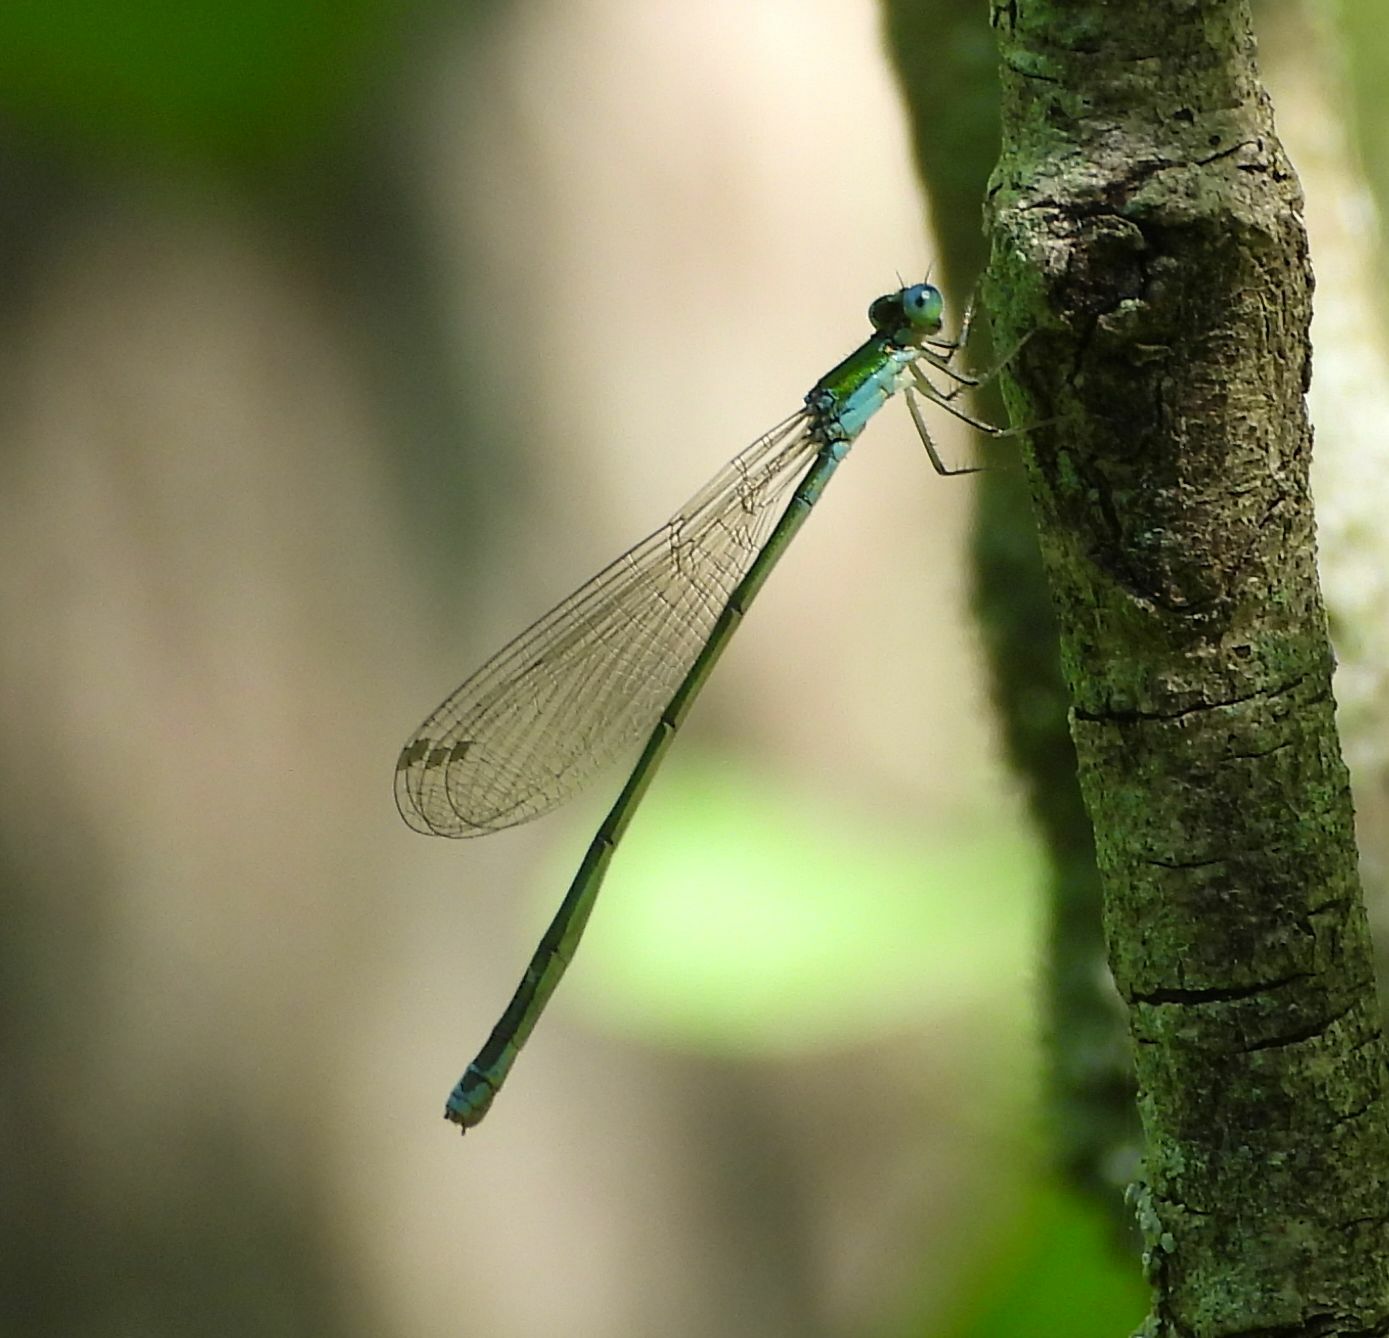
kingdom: Animalia
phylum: Arthropoda
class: Insecta
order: Odonata
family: Coenagrionidae
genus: Nehalennia
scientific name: Nehalennia irene
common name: Sedge sprite
